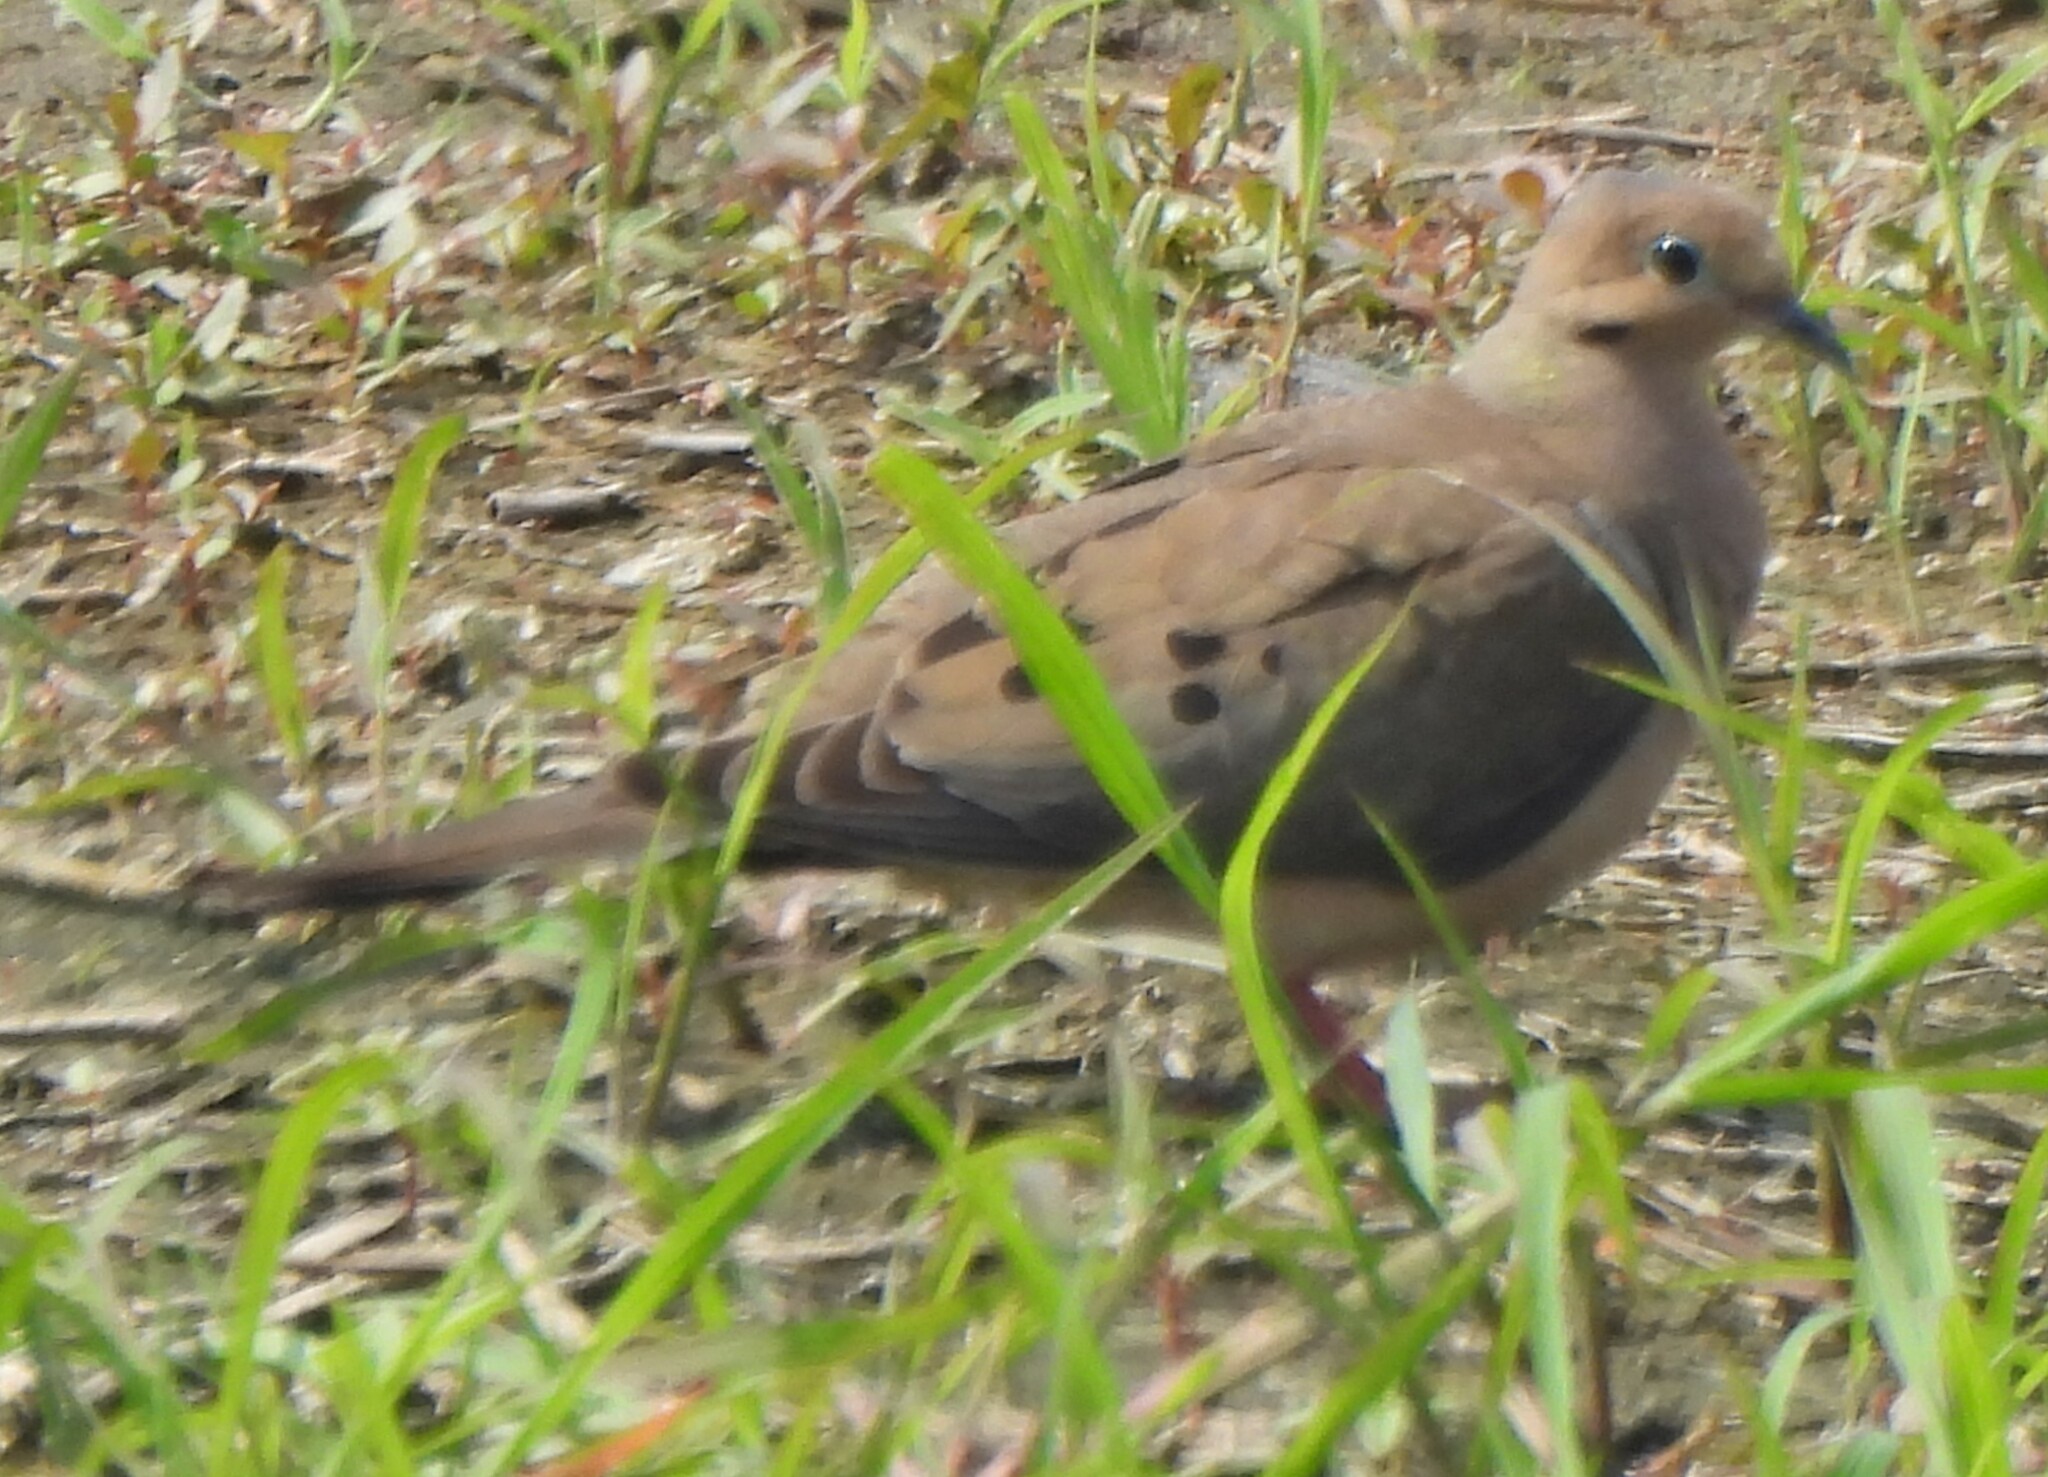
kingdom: Animalia
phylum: Chordata
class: Aves
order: Columbiformes
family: Columbidae
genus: Zenaida
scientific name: Zenaida macroura
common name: Mourning dove
